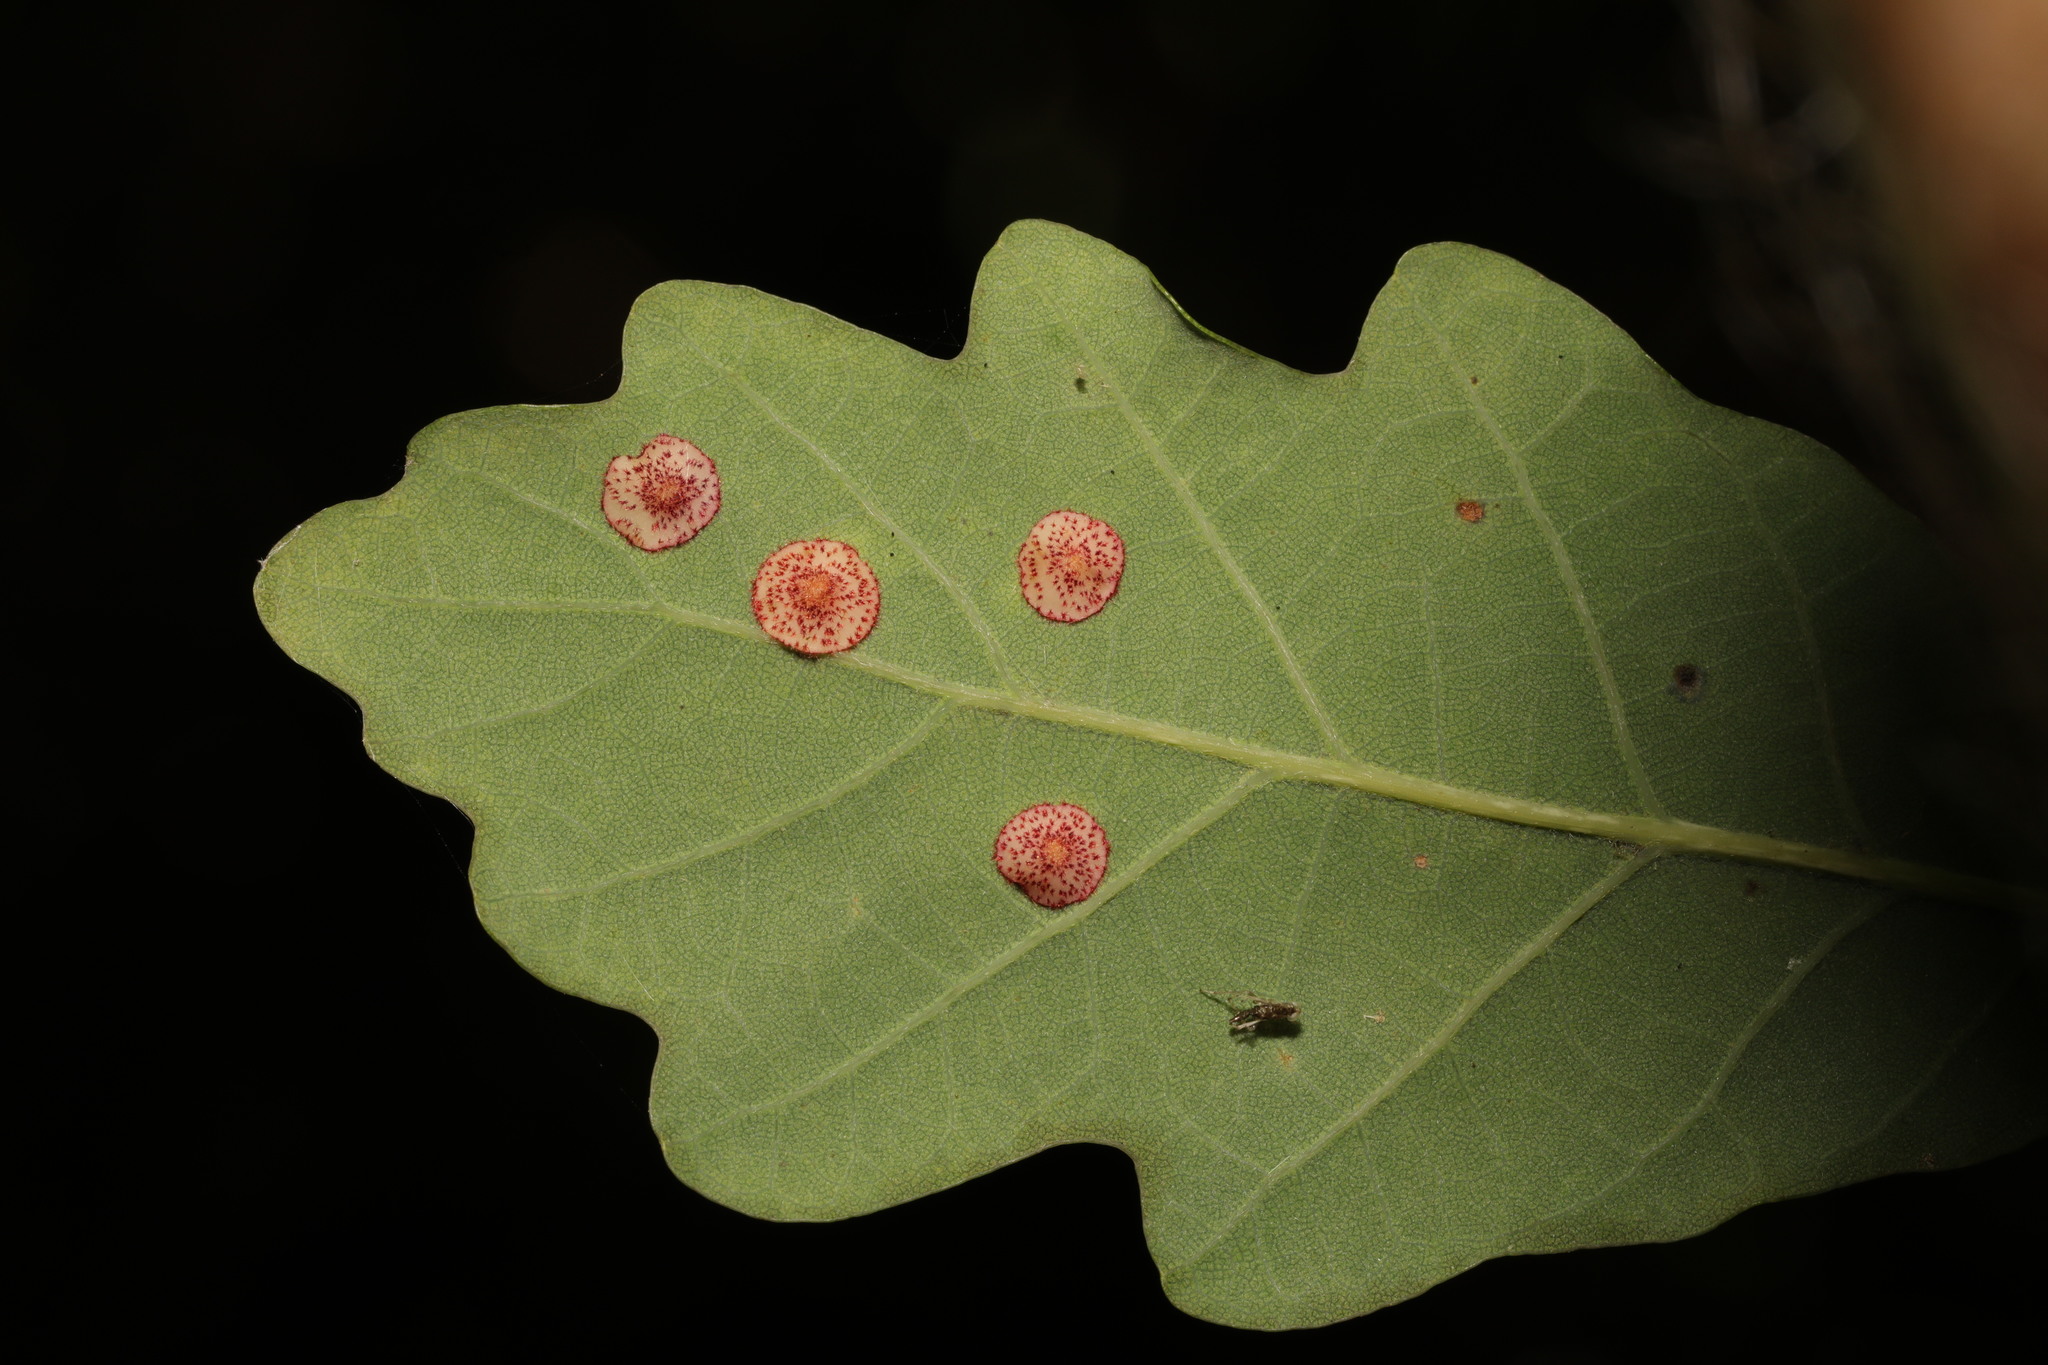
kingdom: Animalia
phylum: Arthropoda
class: Insecta
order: Hymenoptera
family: Cynipidae
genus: Neuroterus
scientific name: Neuroterus quercusbaccarum
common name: Common spangle gall
